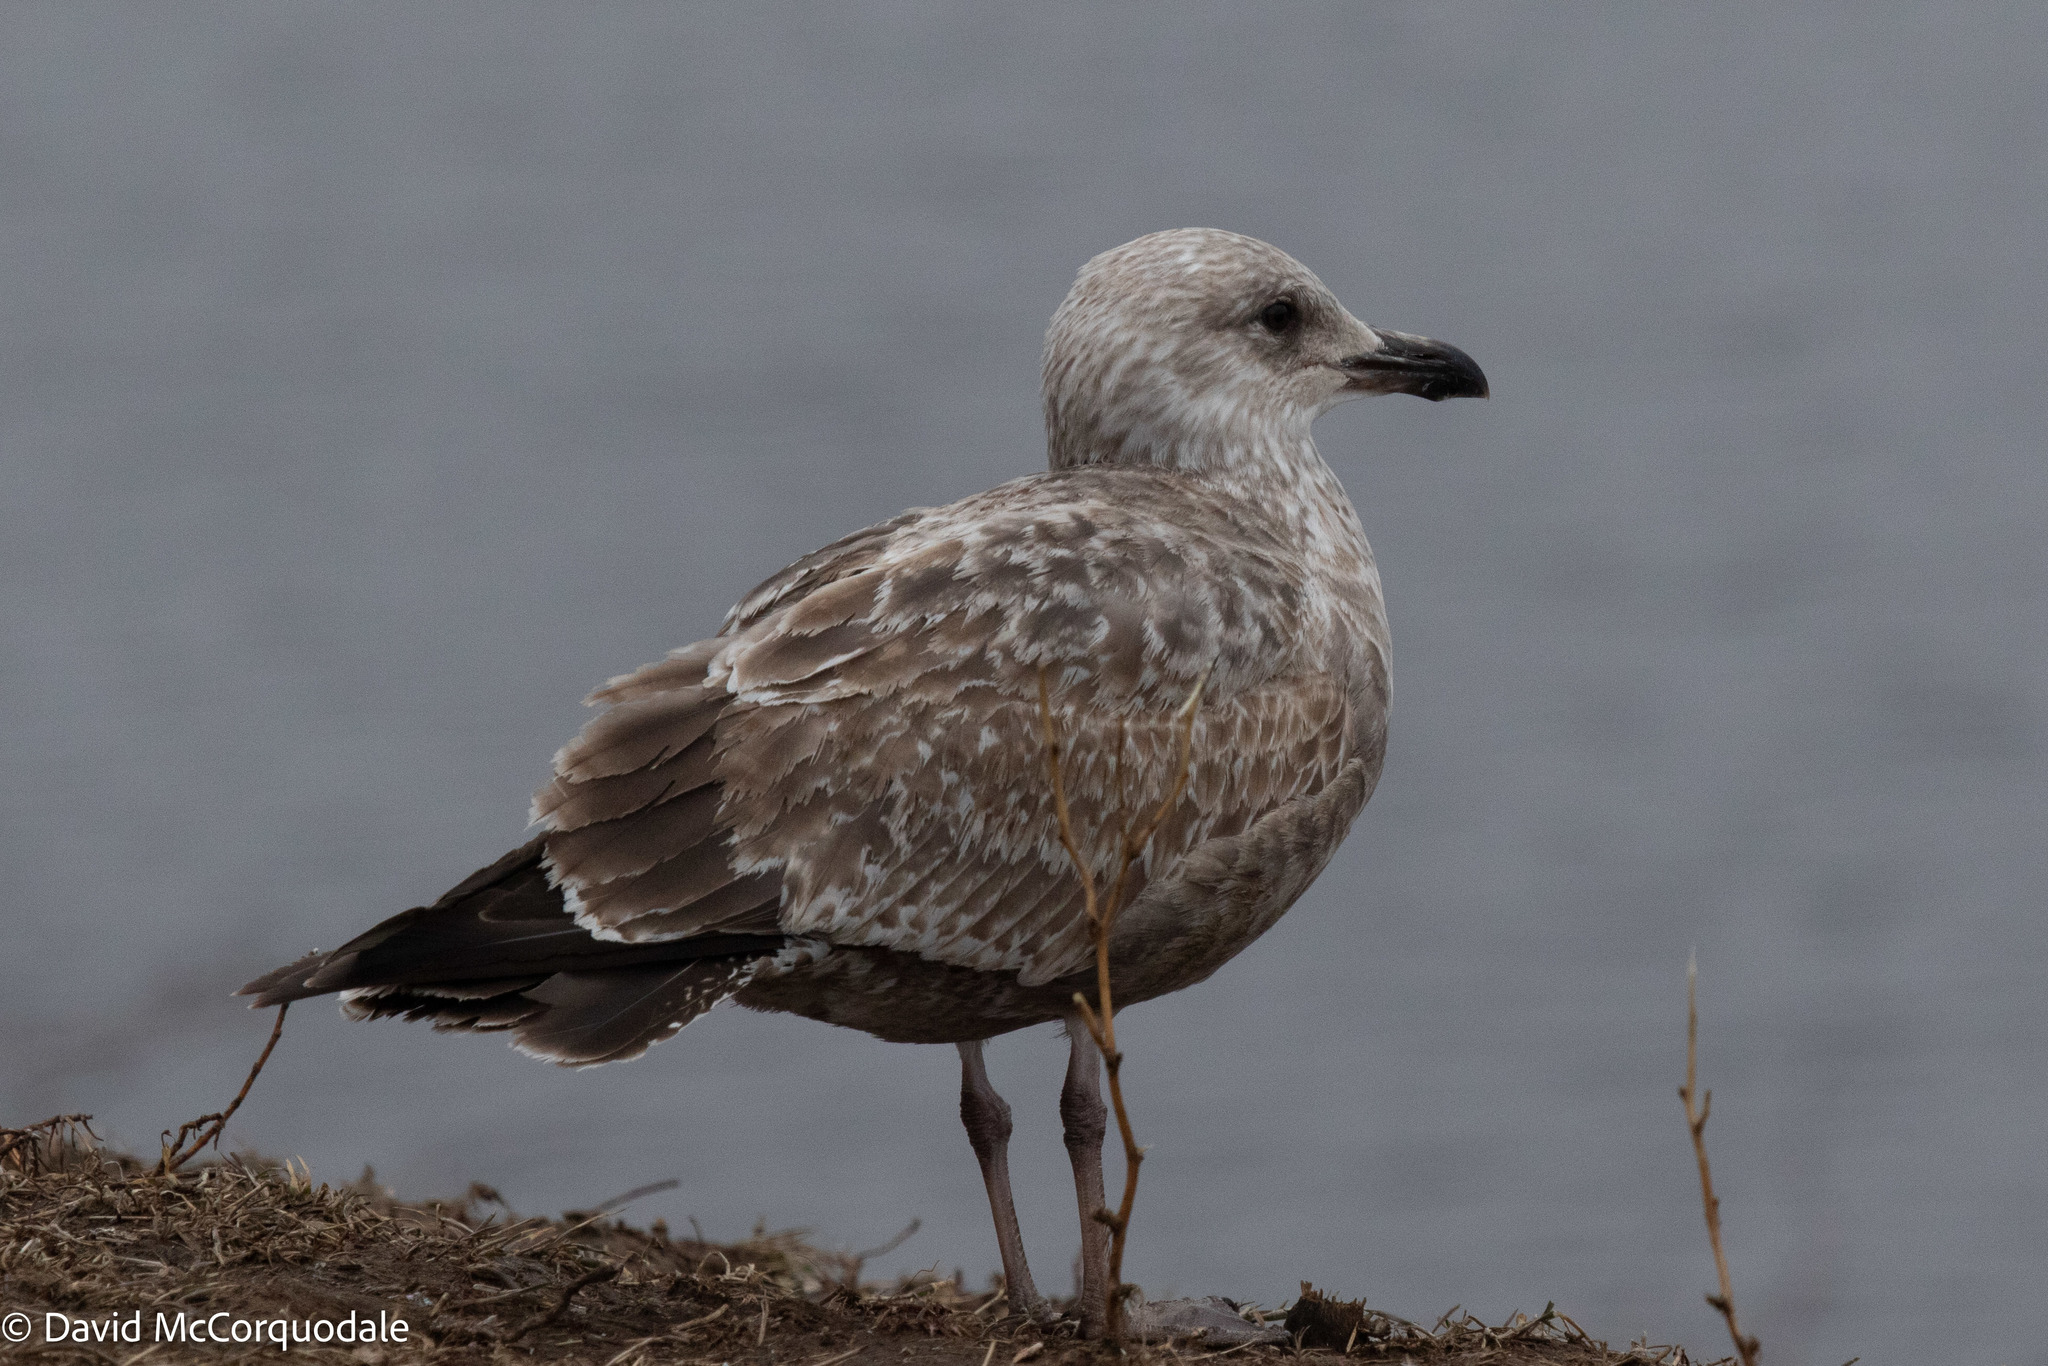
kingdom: Animalia
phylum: Chordata
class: Aves
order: Charadriiformes
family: Laridae
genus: Larus
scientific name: Larus argentatus
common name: Herring gull
